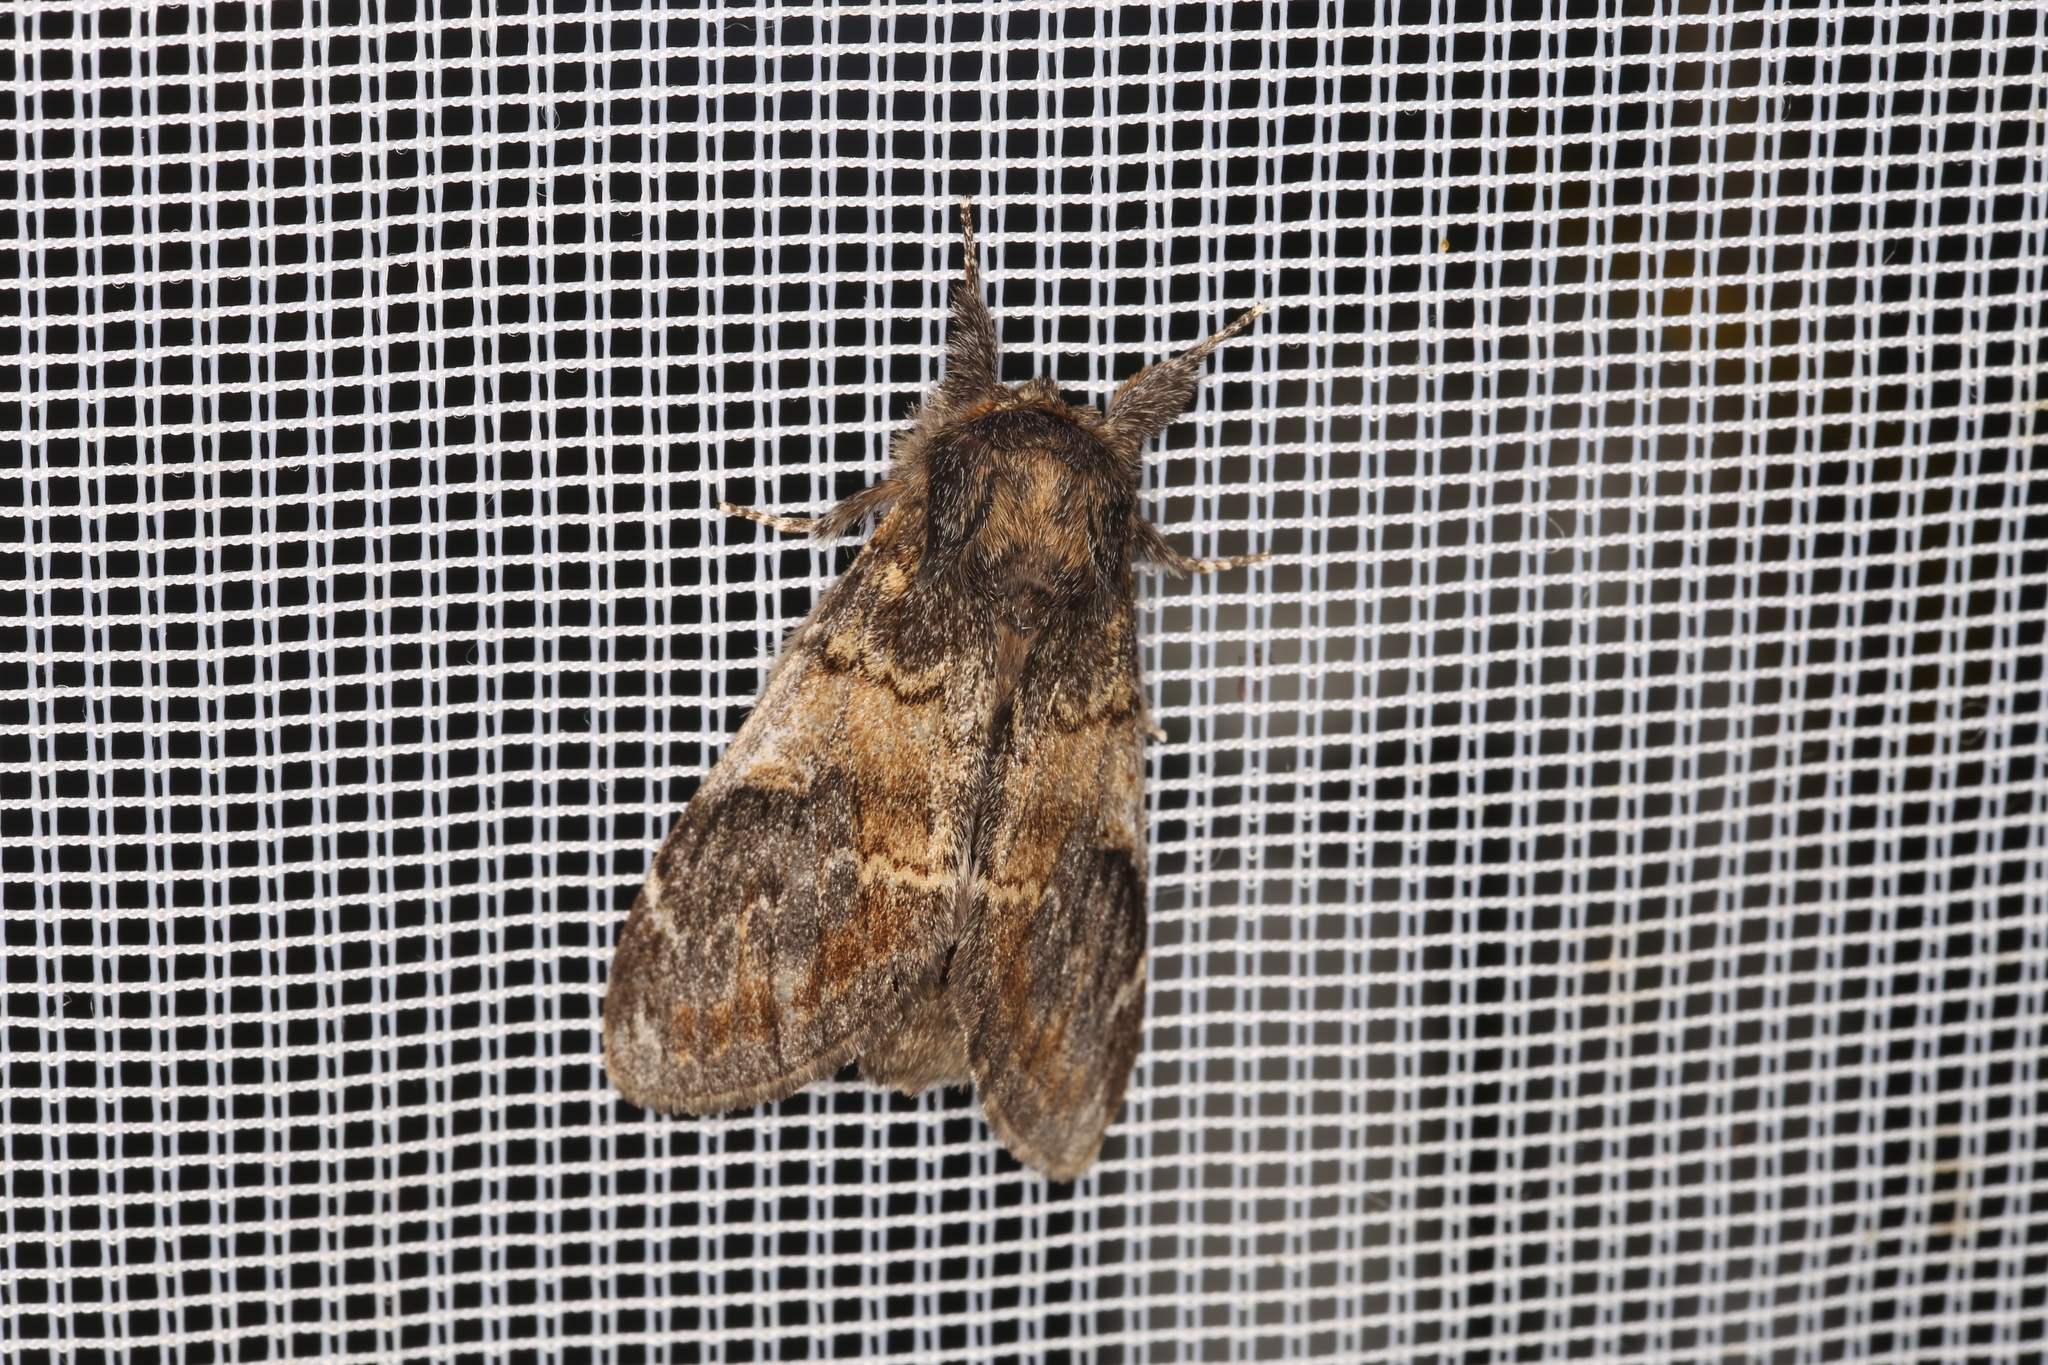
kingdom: Animalia
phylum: Arthropoda
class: Insecta
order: Lepidoptera
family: Notodontidae
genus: Notodonta
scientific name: Notodonta tritophus
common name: Three-humped prominent
